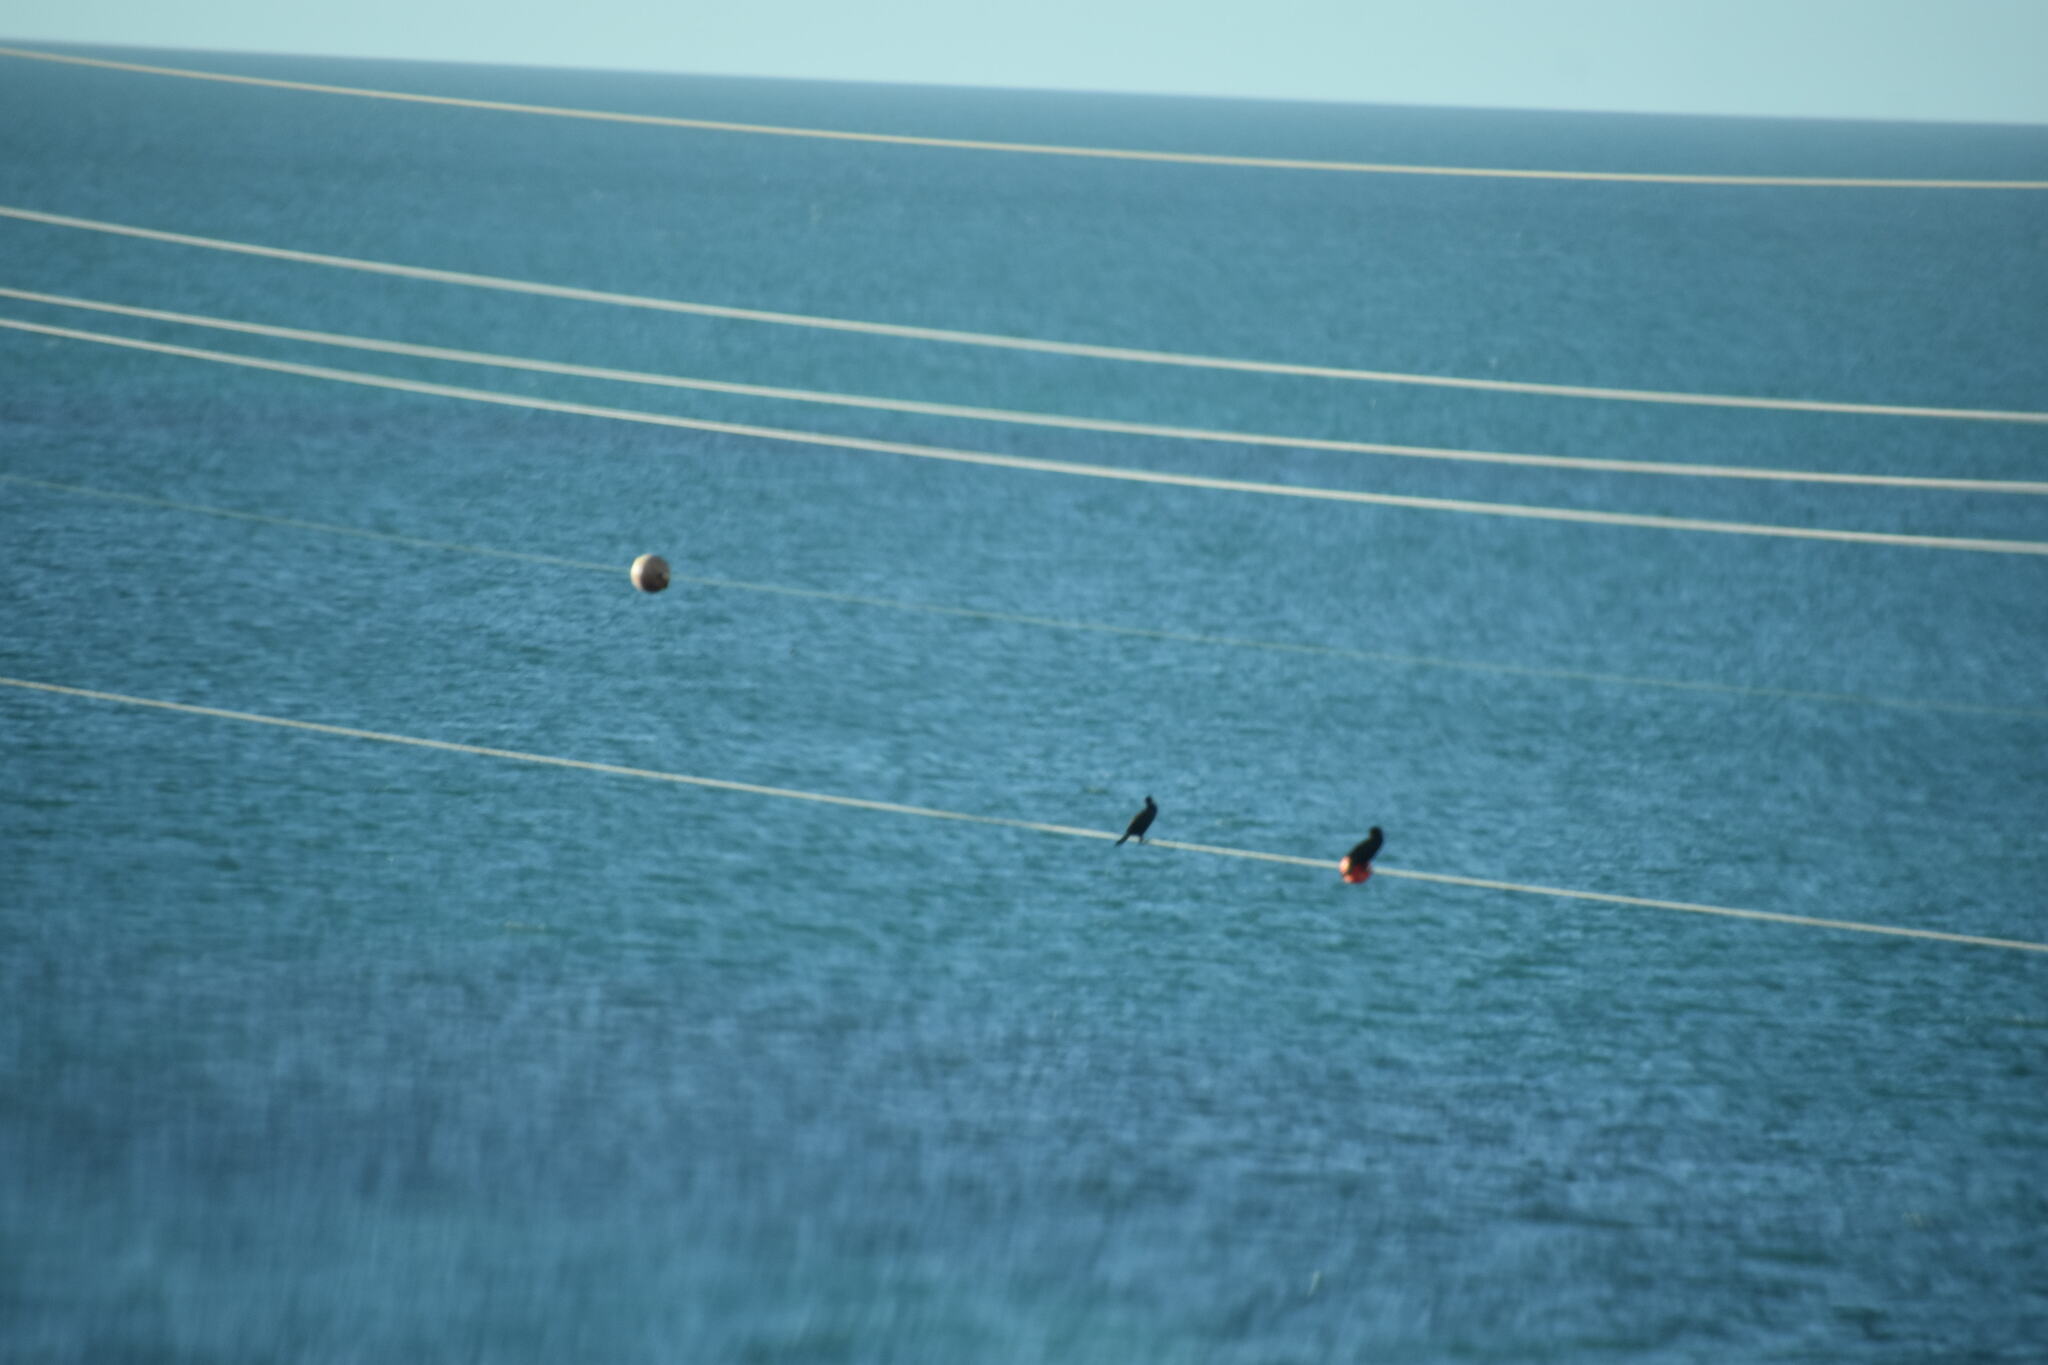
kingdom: Animalia
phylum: Chordata
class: Aves
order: Suliformes
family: Phalacrocoracidae
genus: Phalacrocorax
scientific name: Phalacrocorax auritus
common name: Double-crested cormorant
